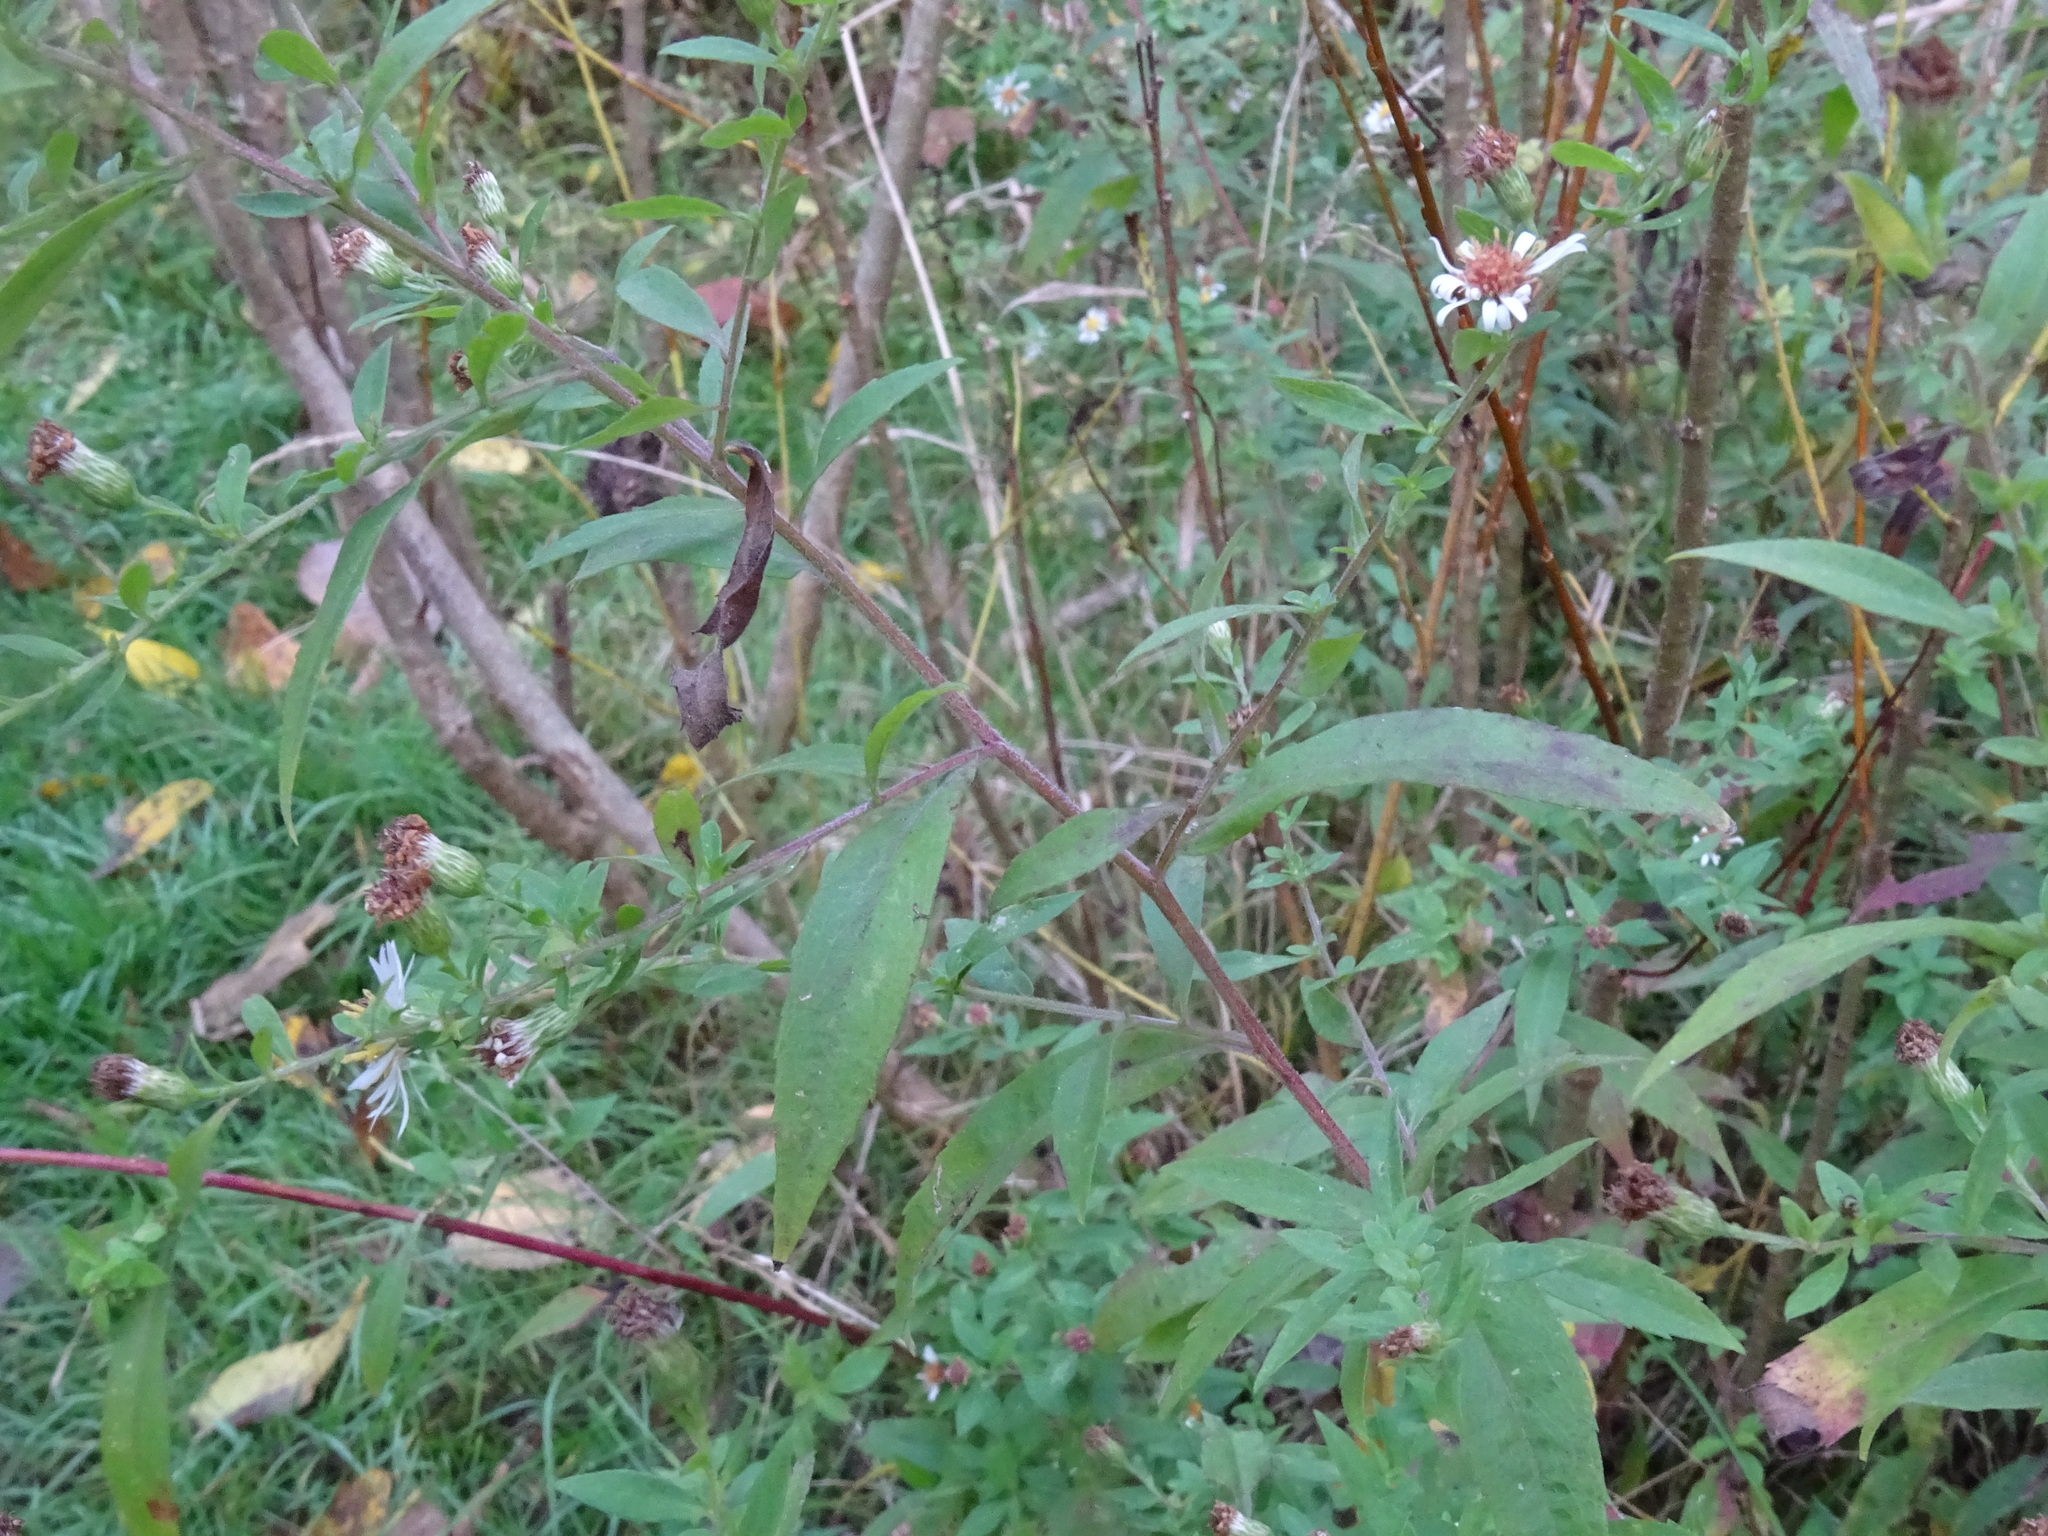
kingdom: Plantae
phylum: Tracheophyta
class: Magnoliopsida
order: Asterales
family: Asteraceae
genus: Symphyotrichum
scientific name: Symphyotrichum ontarionis
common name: Bottomland aster
